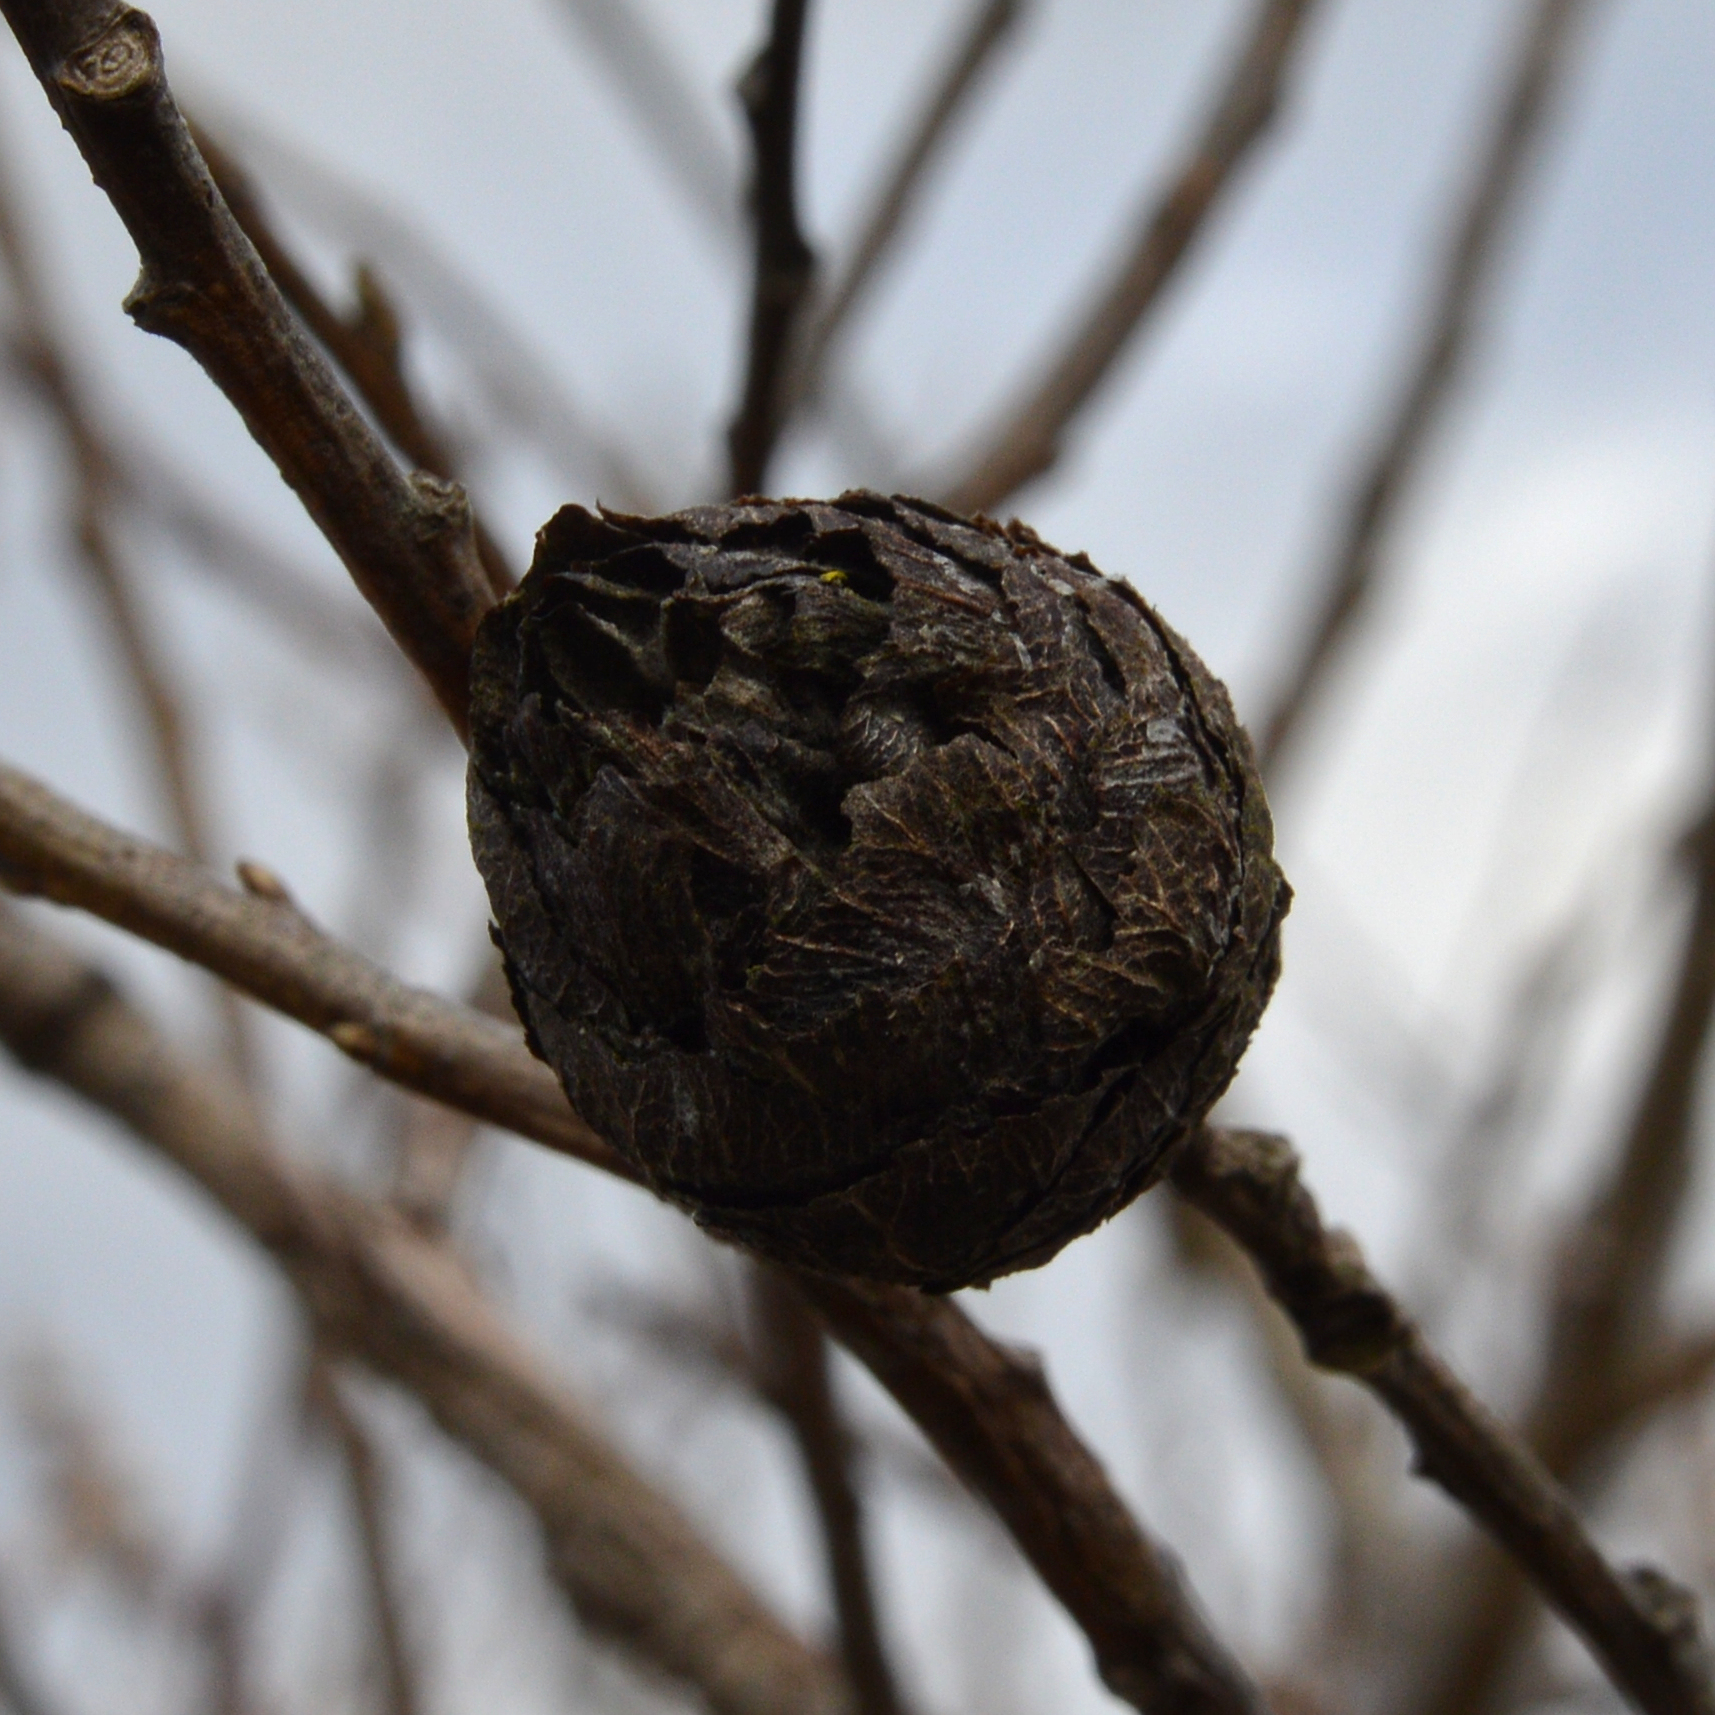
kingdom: Animalia
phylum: Arthropoda
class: Insecta
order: Diptera
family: Cecidomyiidae
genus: Rabdophaga
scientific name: Rabdophaga strobiloides
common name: Willow pinecone gall midge
